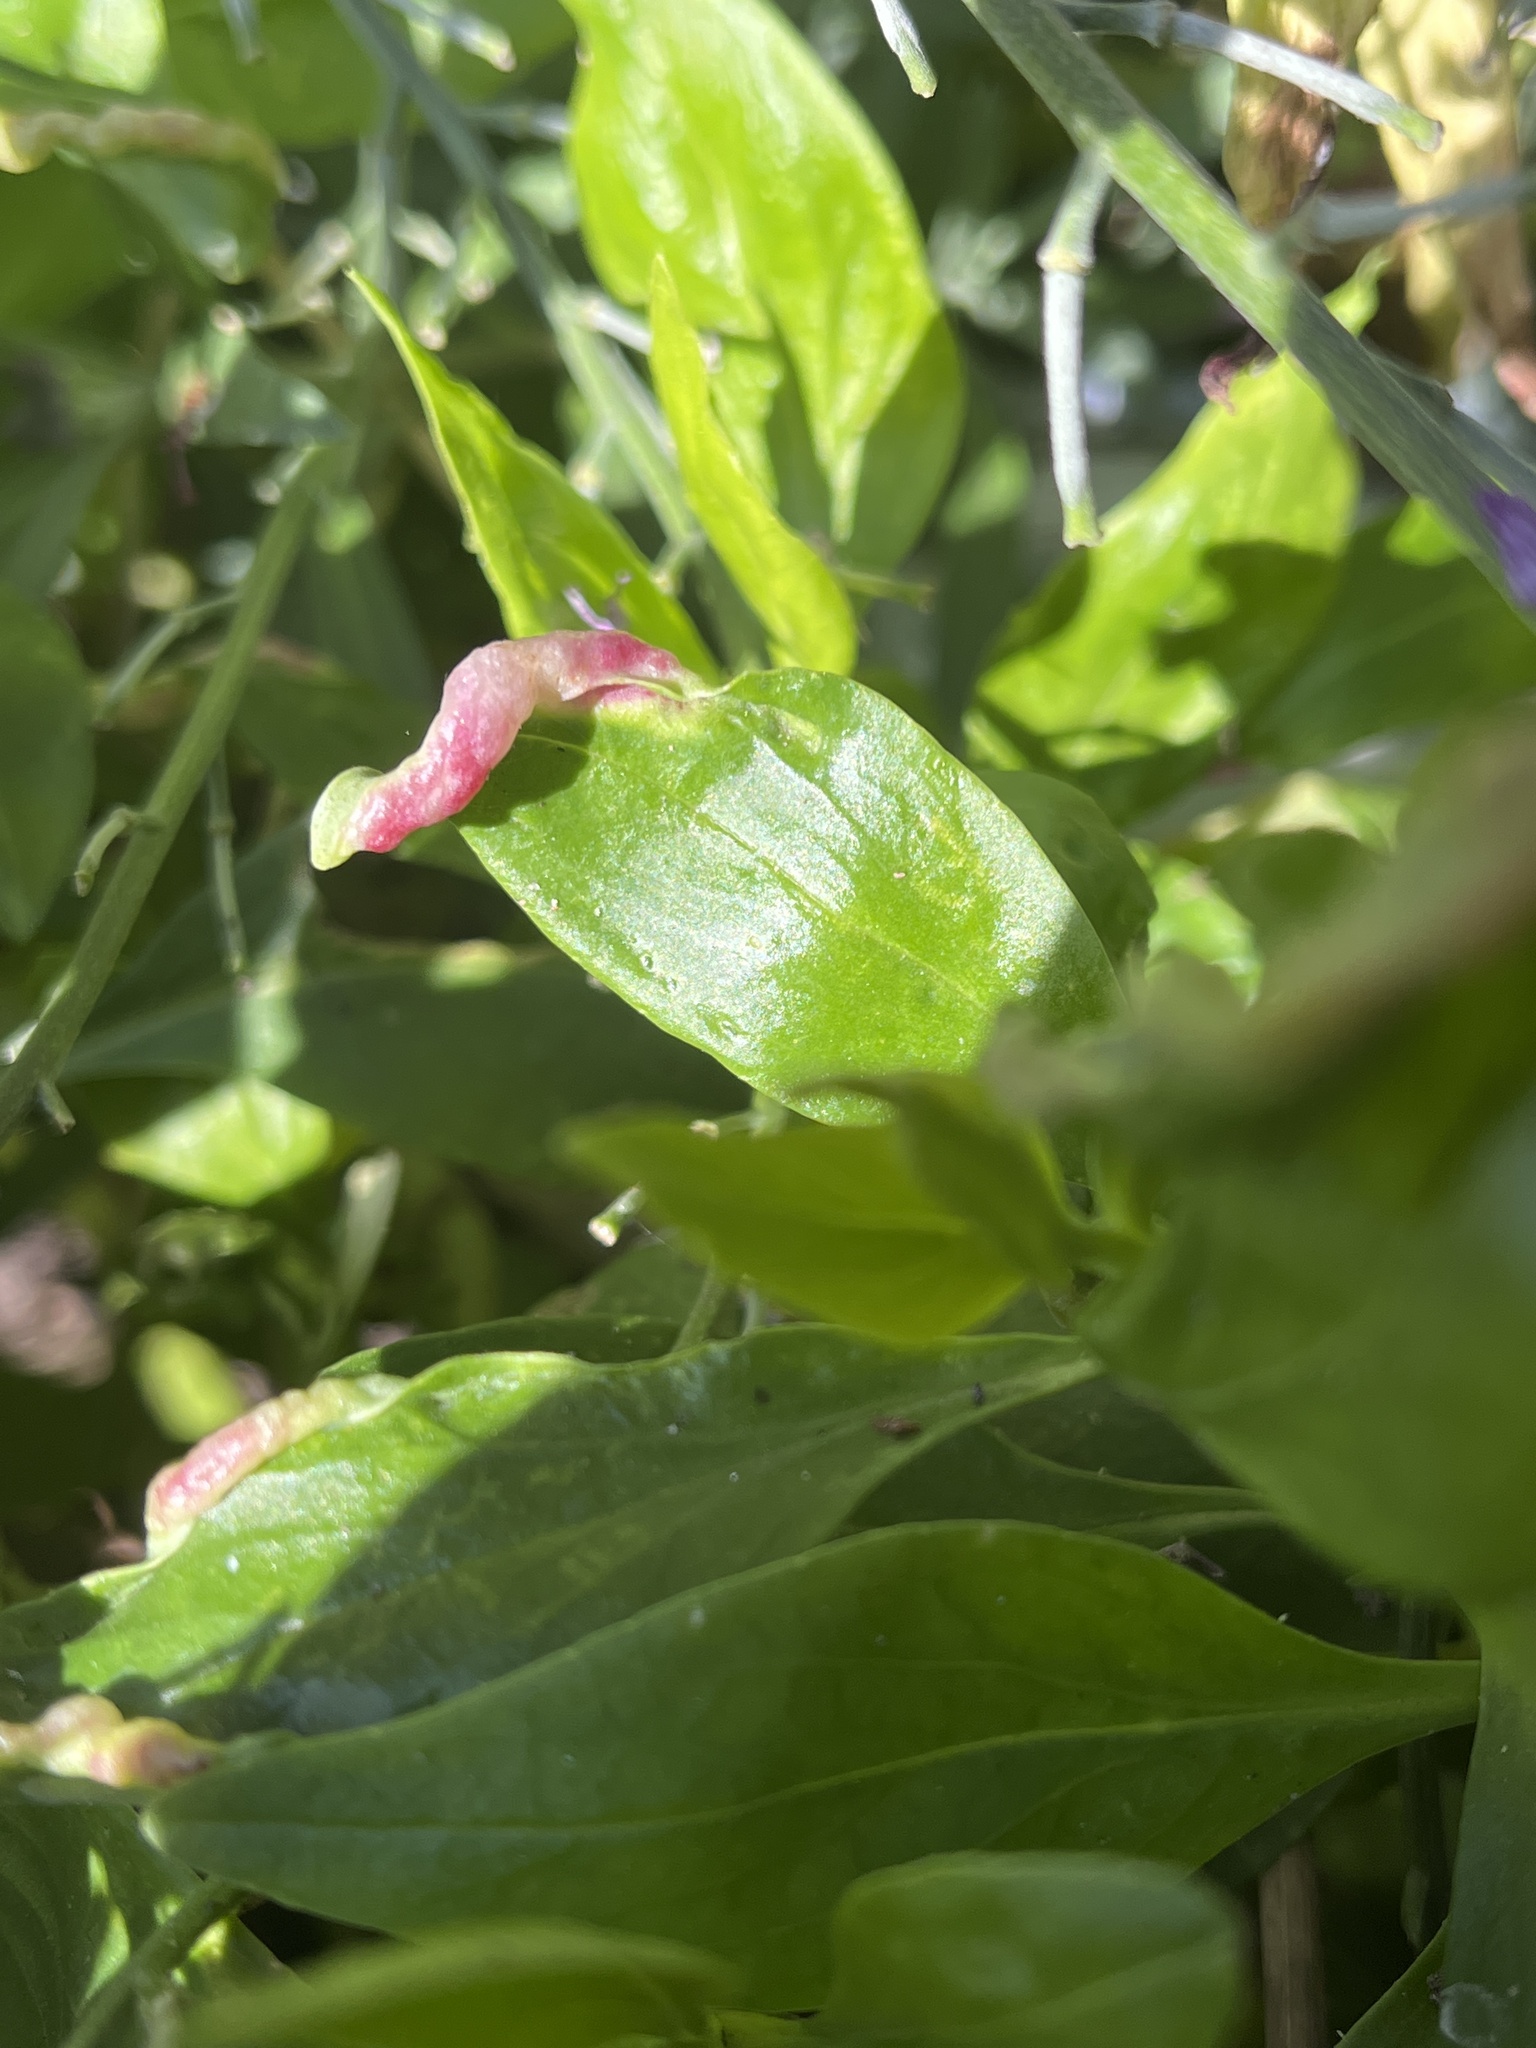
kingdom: Animalia
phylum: Arthropoda
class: Insecta
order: Hemiptera
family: Triozidae
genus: Trioza
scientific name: Trioza centranthi
